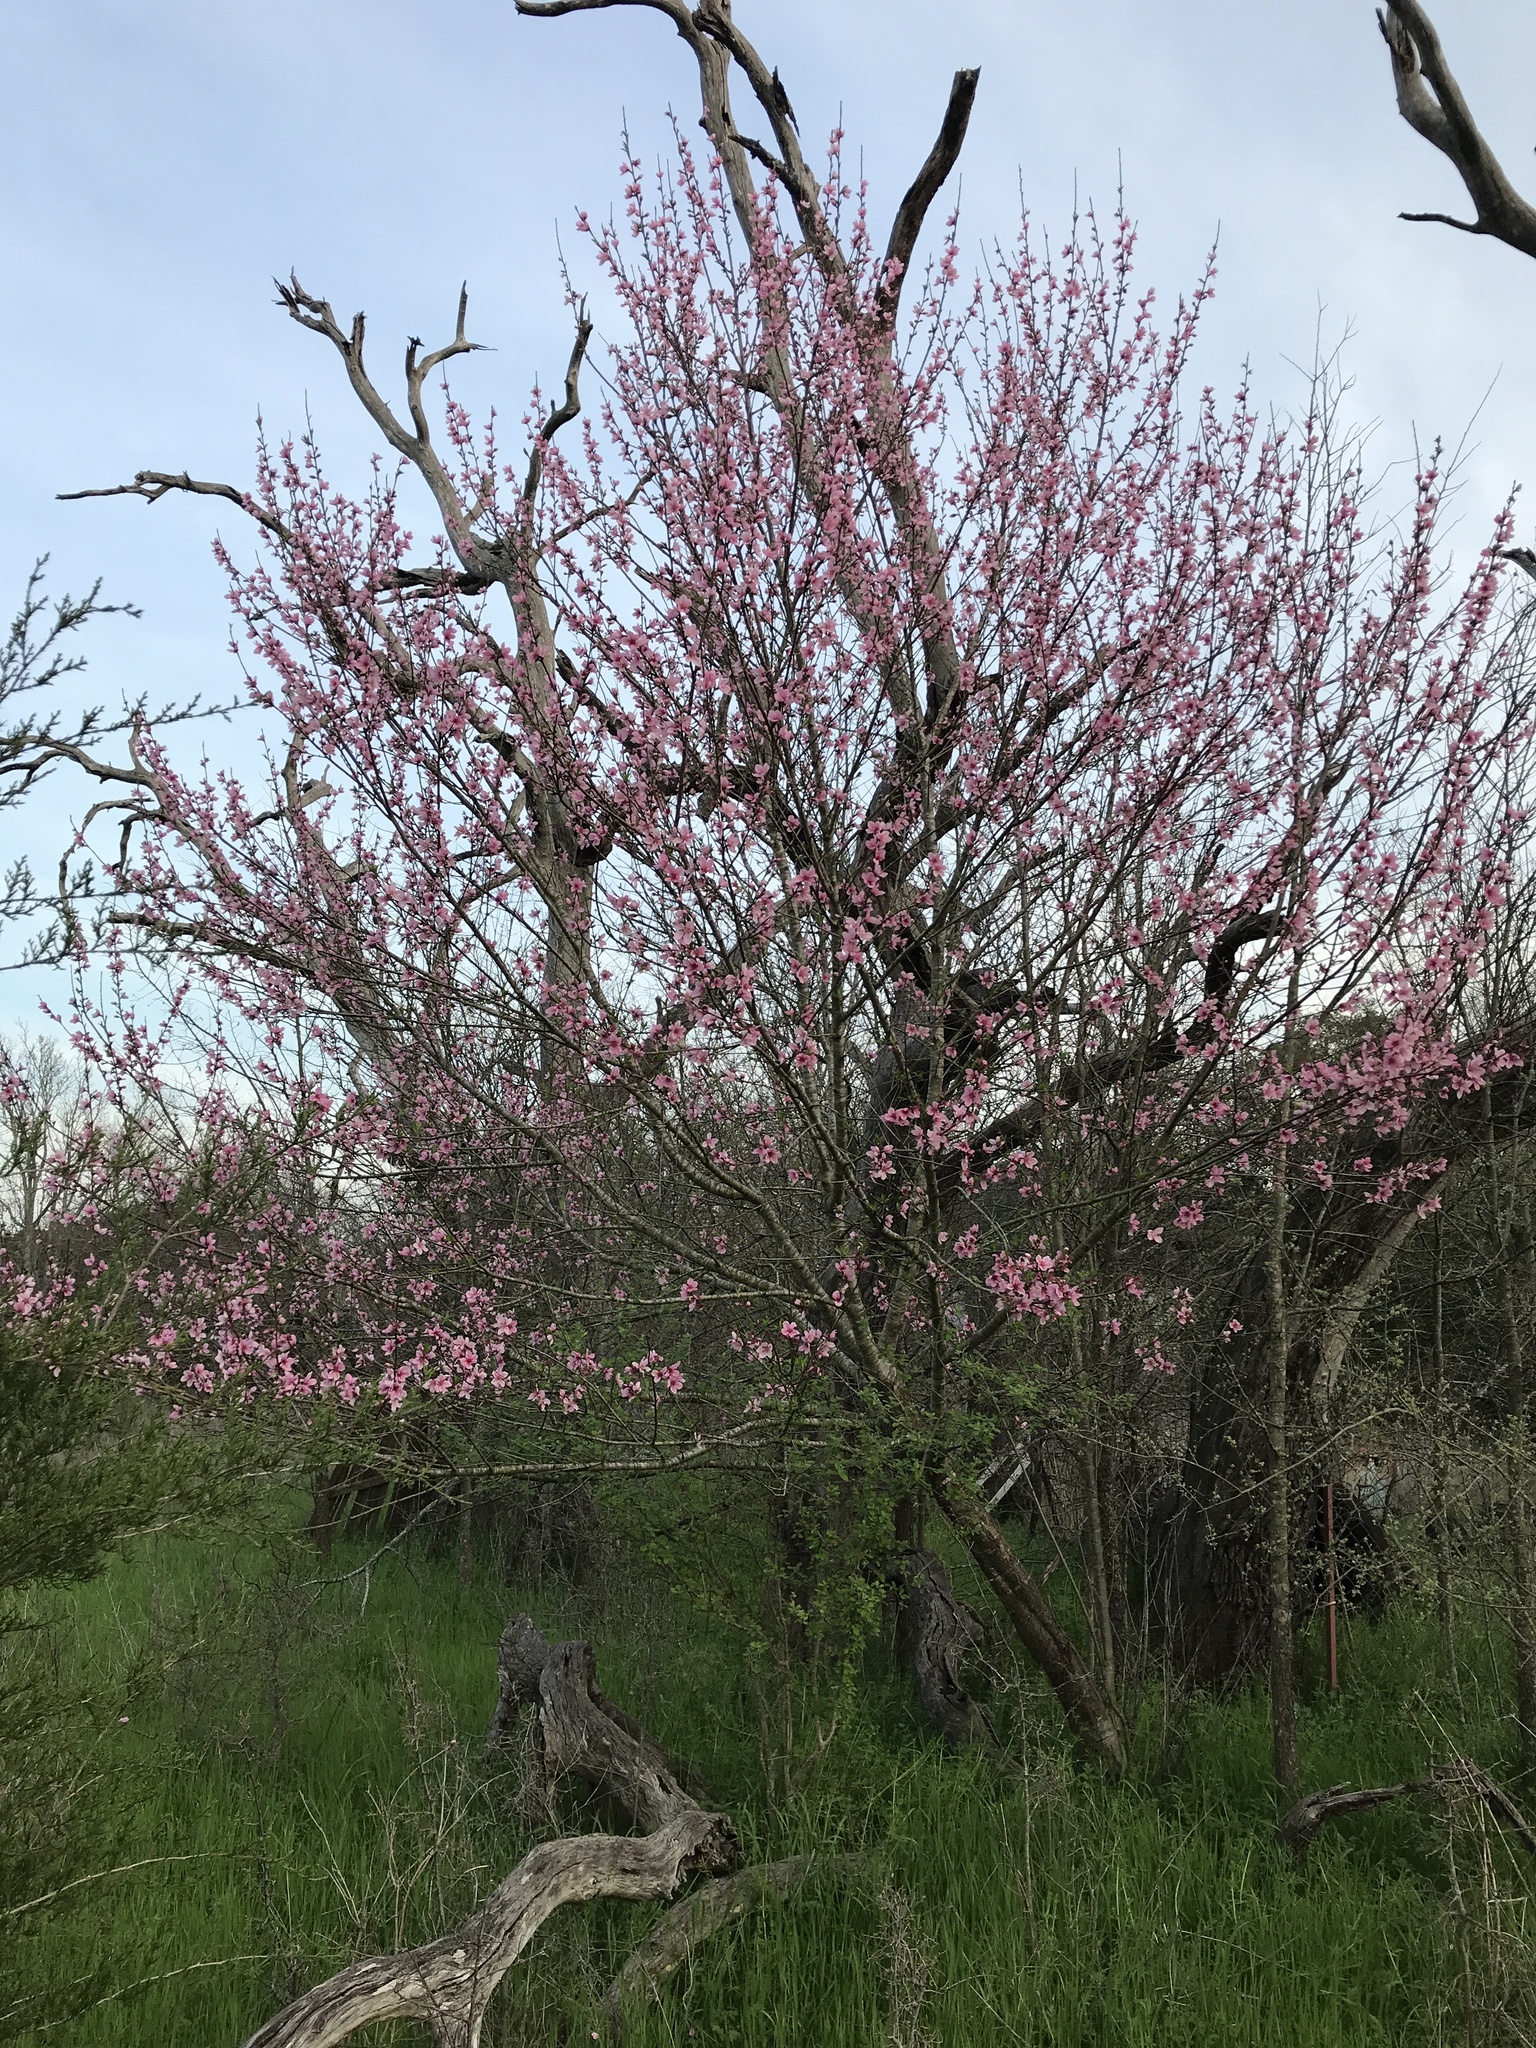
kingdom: Plantae
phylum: Tracheophyta
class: Magnoliopsida
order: Rosales
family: Rosaceae
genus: Prunus
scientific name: Prunus persica
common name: Peach
